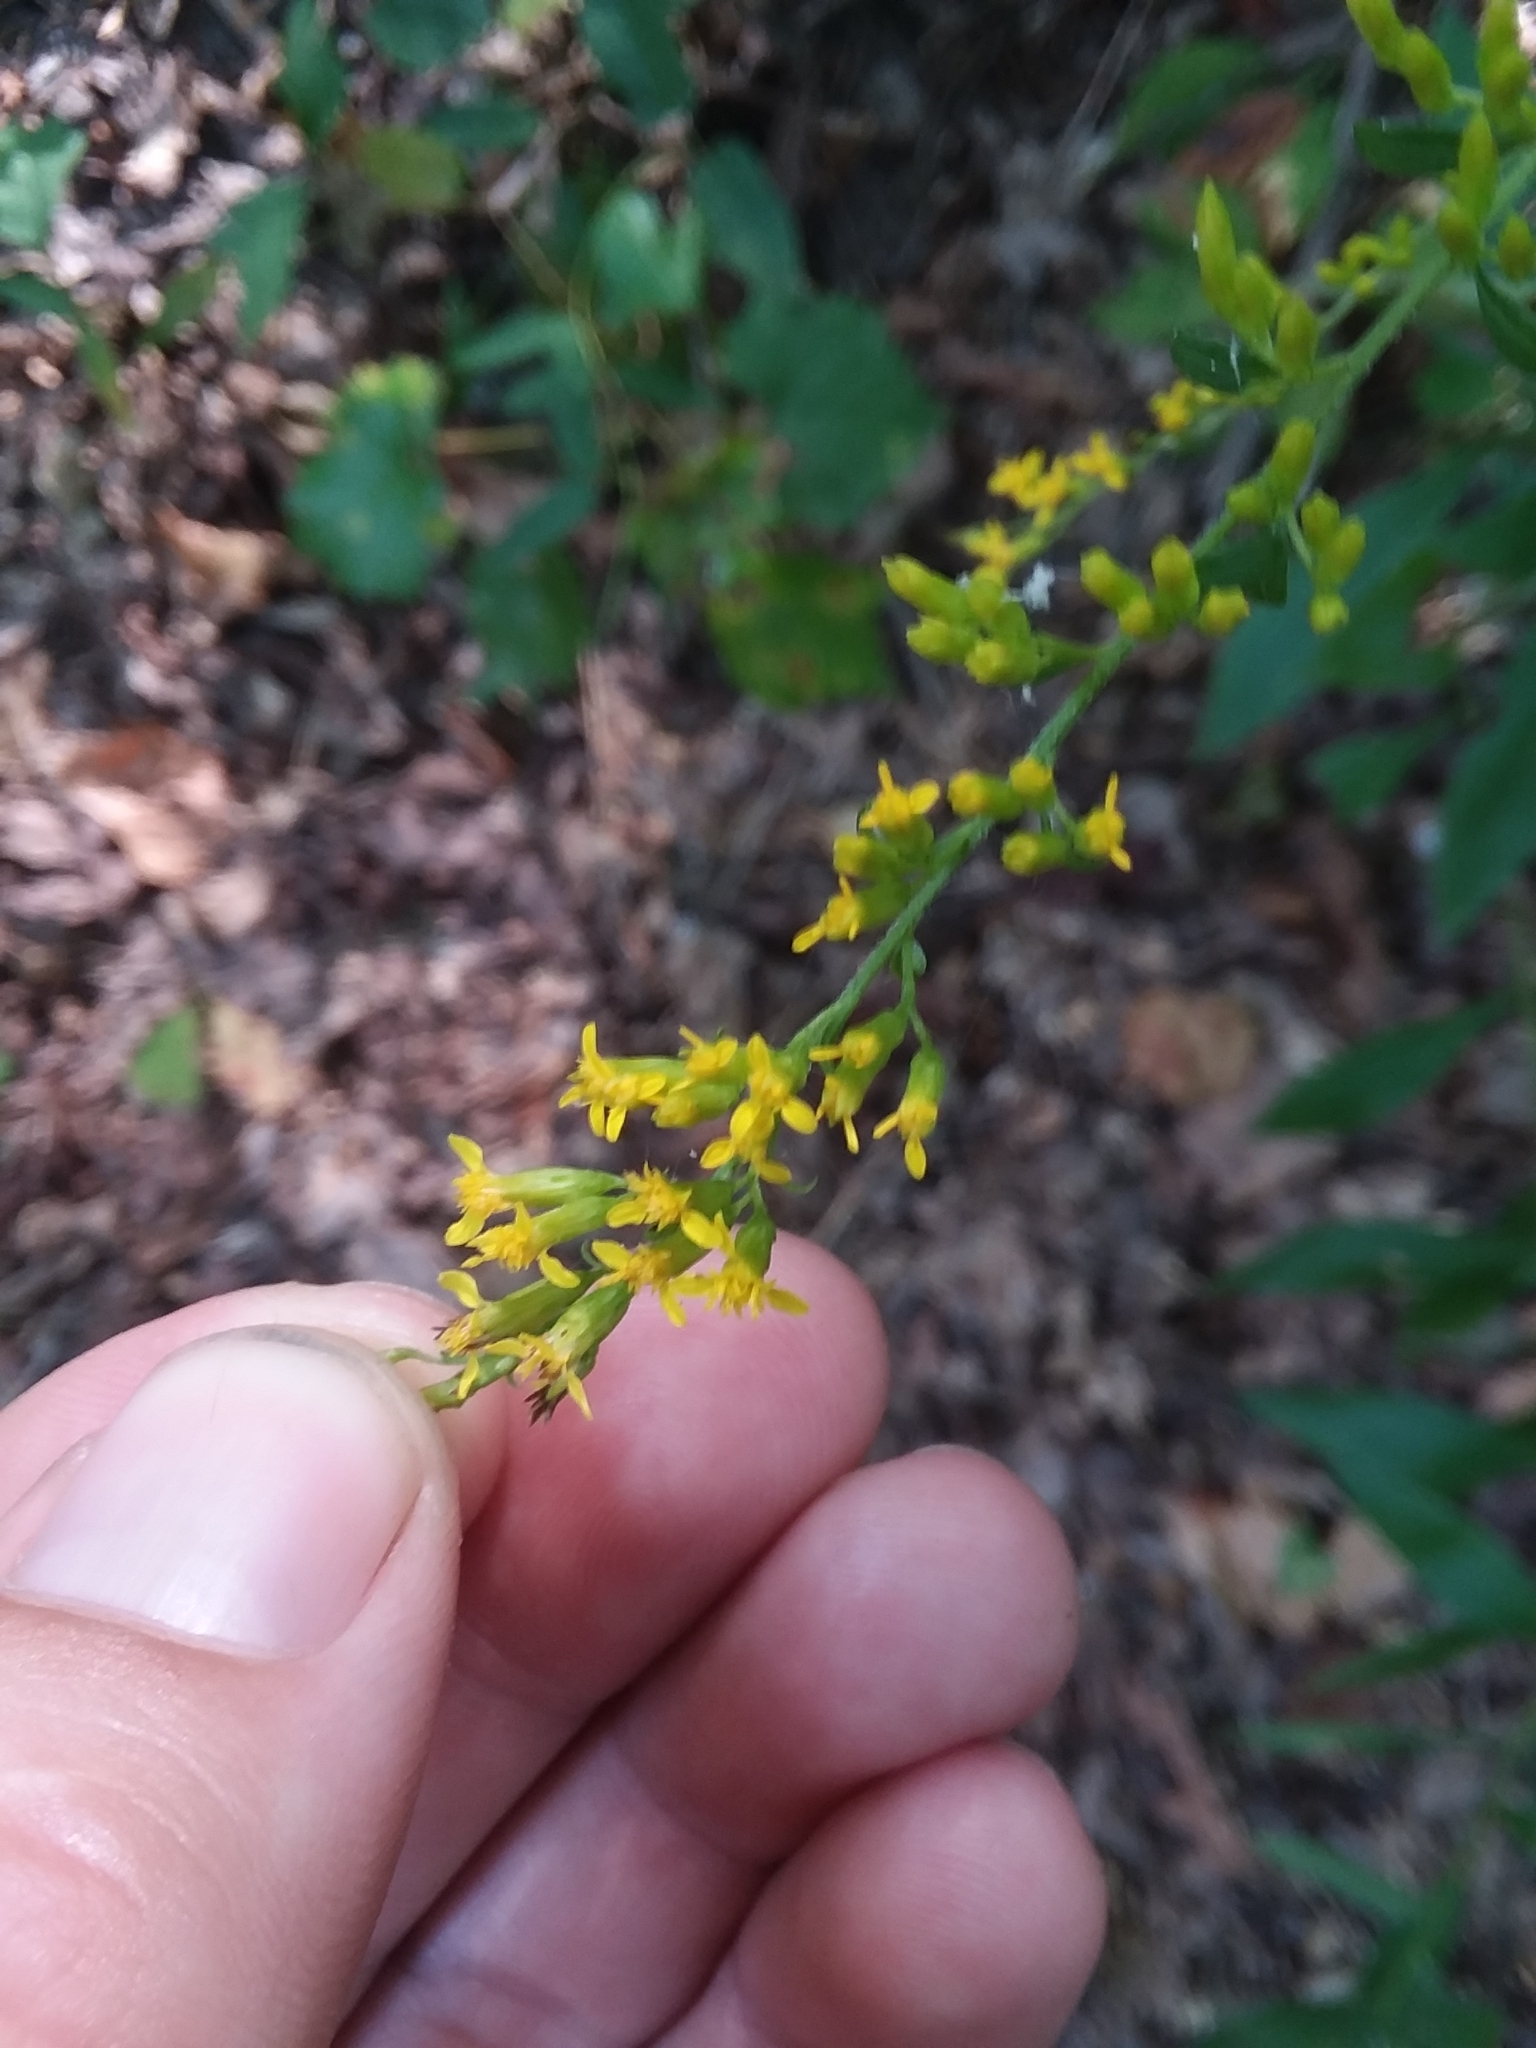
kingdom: Plantae
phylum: Tracheophyta
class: Magnoliopsida
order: Asterales
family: Asteraceae
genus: Solidago
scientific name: Solidago ulmifolia
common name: Elm-leaf goldenrod
